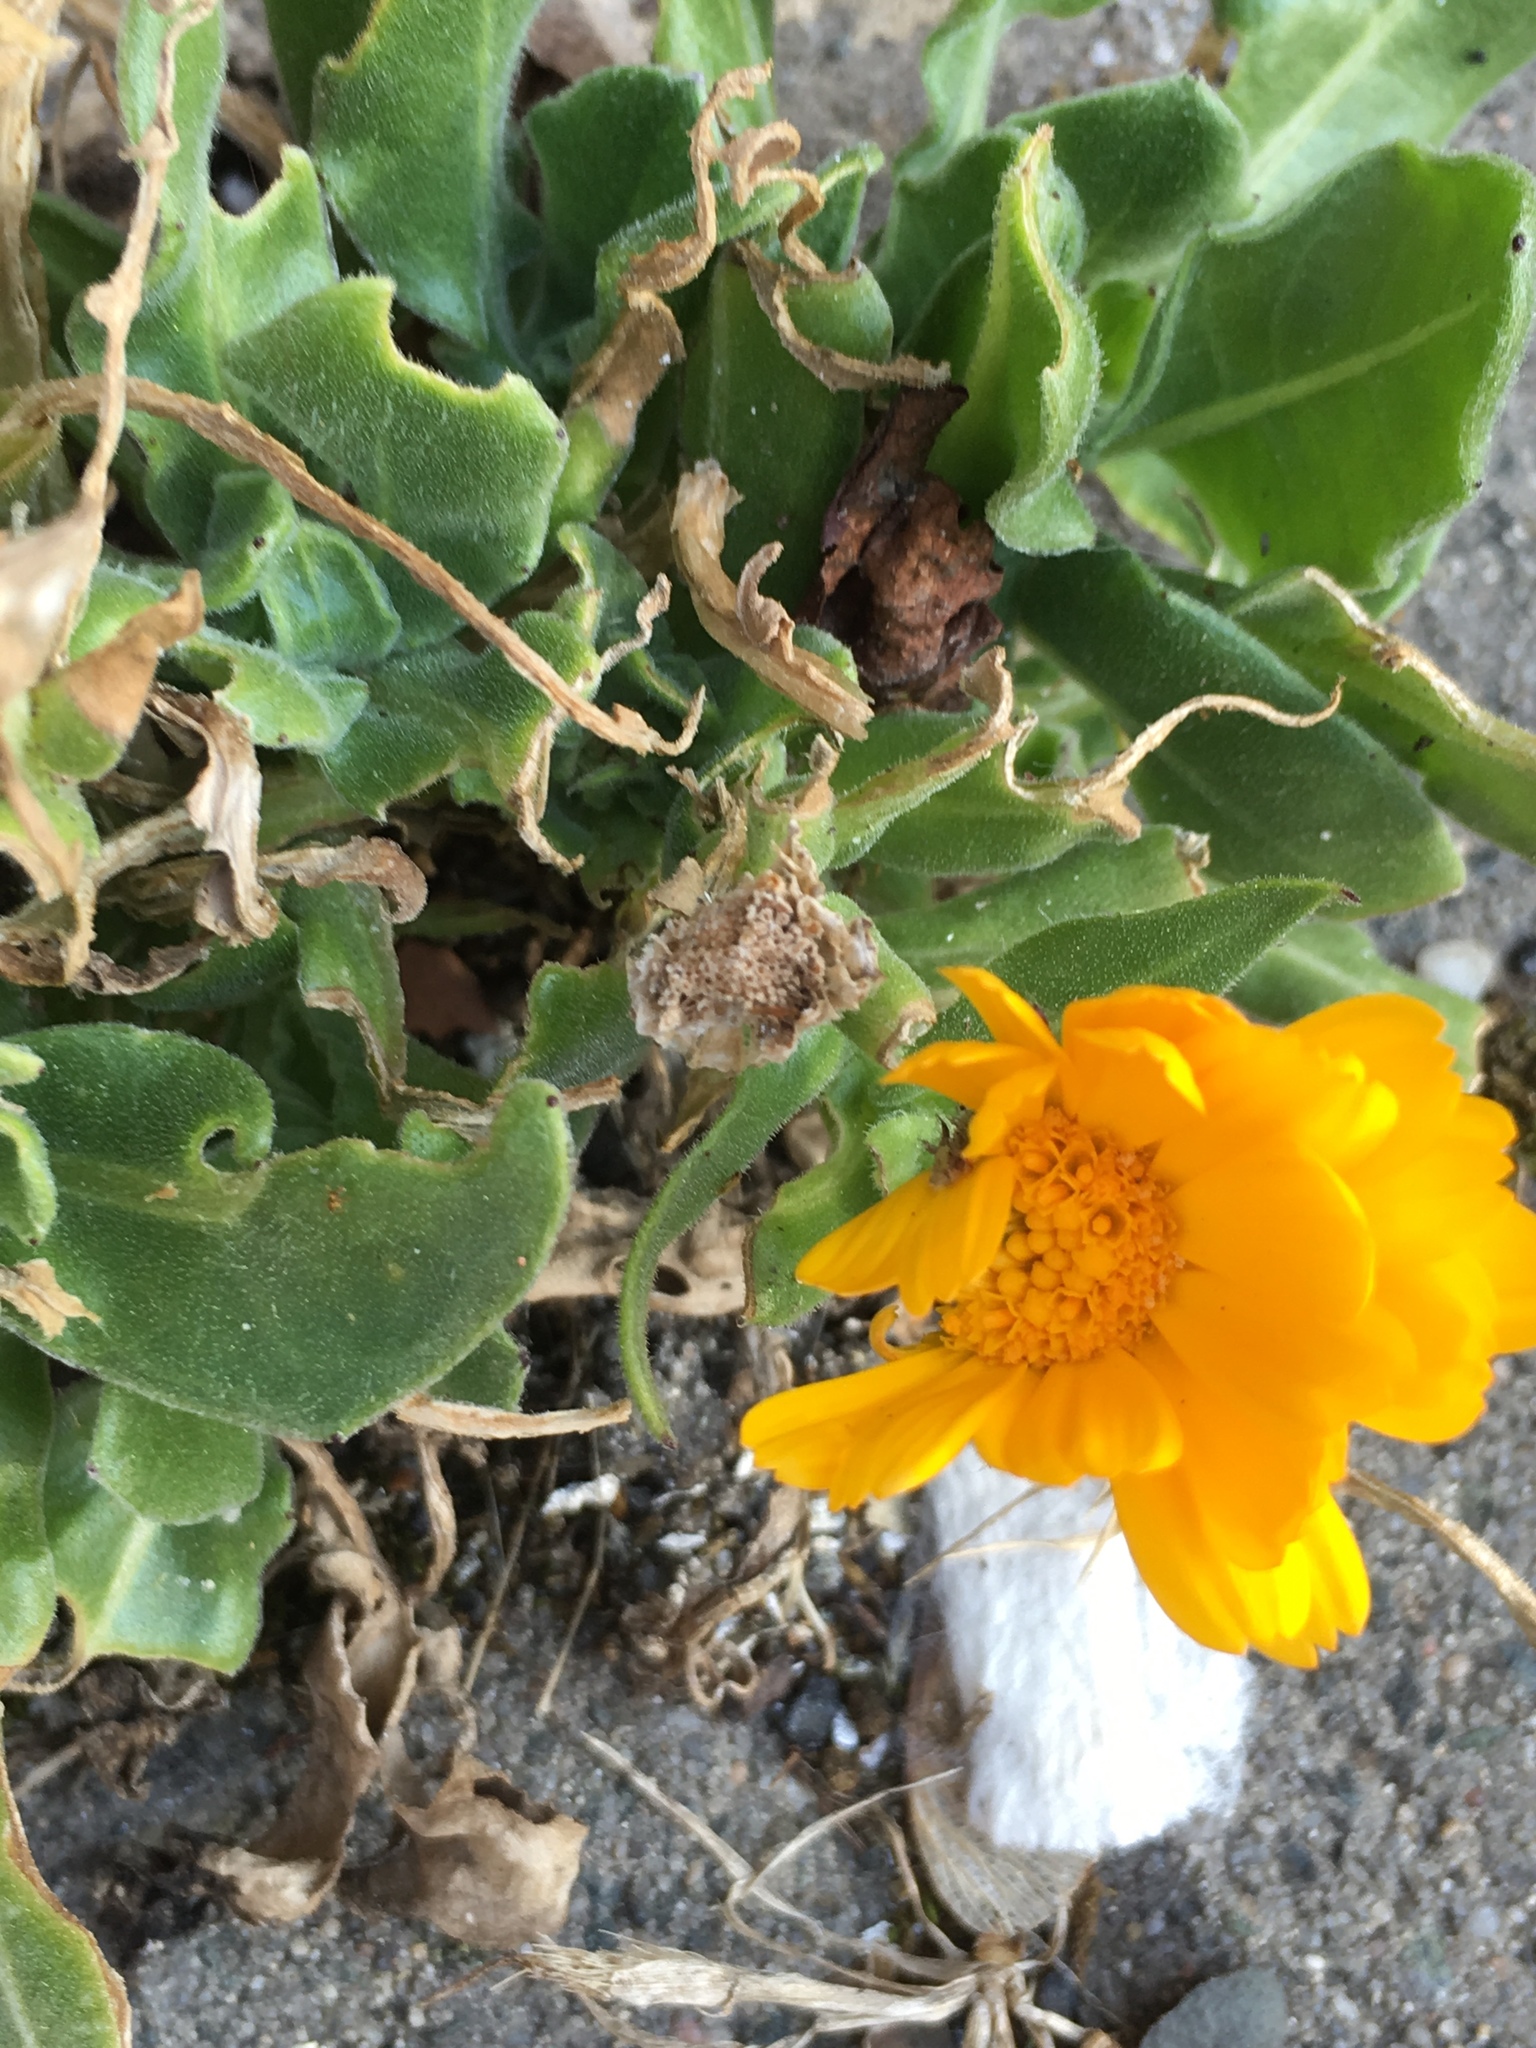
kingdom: Plantae
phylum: Tracheophyta
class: Magnoliopsida
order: Asterales
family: Asteraceae
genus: Calendula
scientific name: Calendula officinalis
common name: Pot marigold
